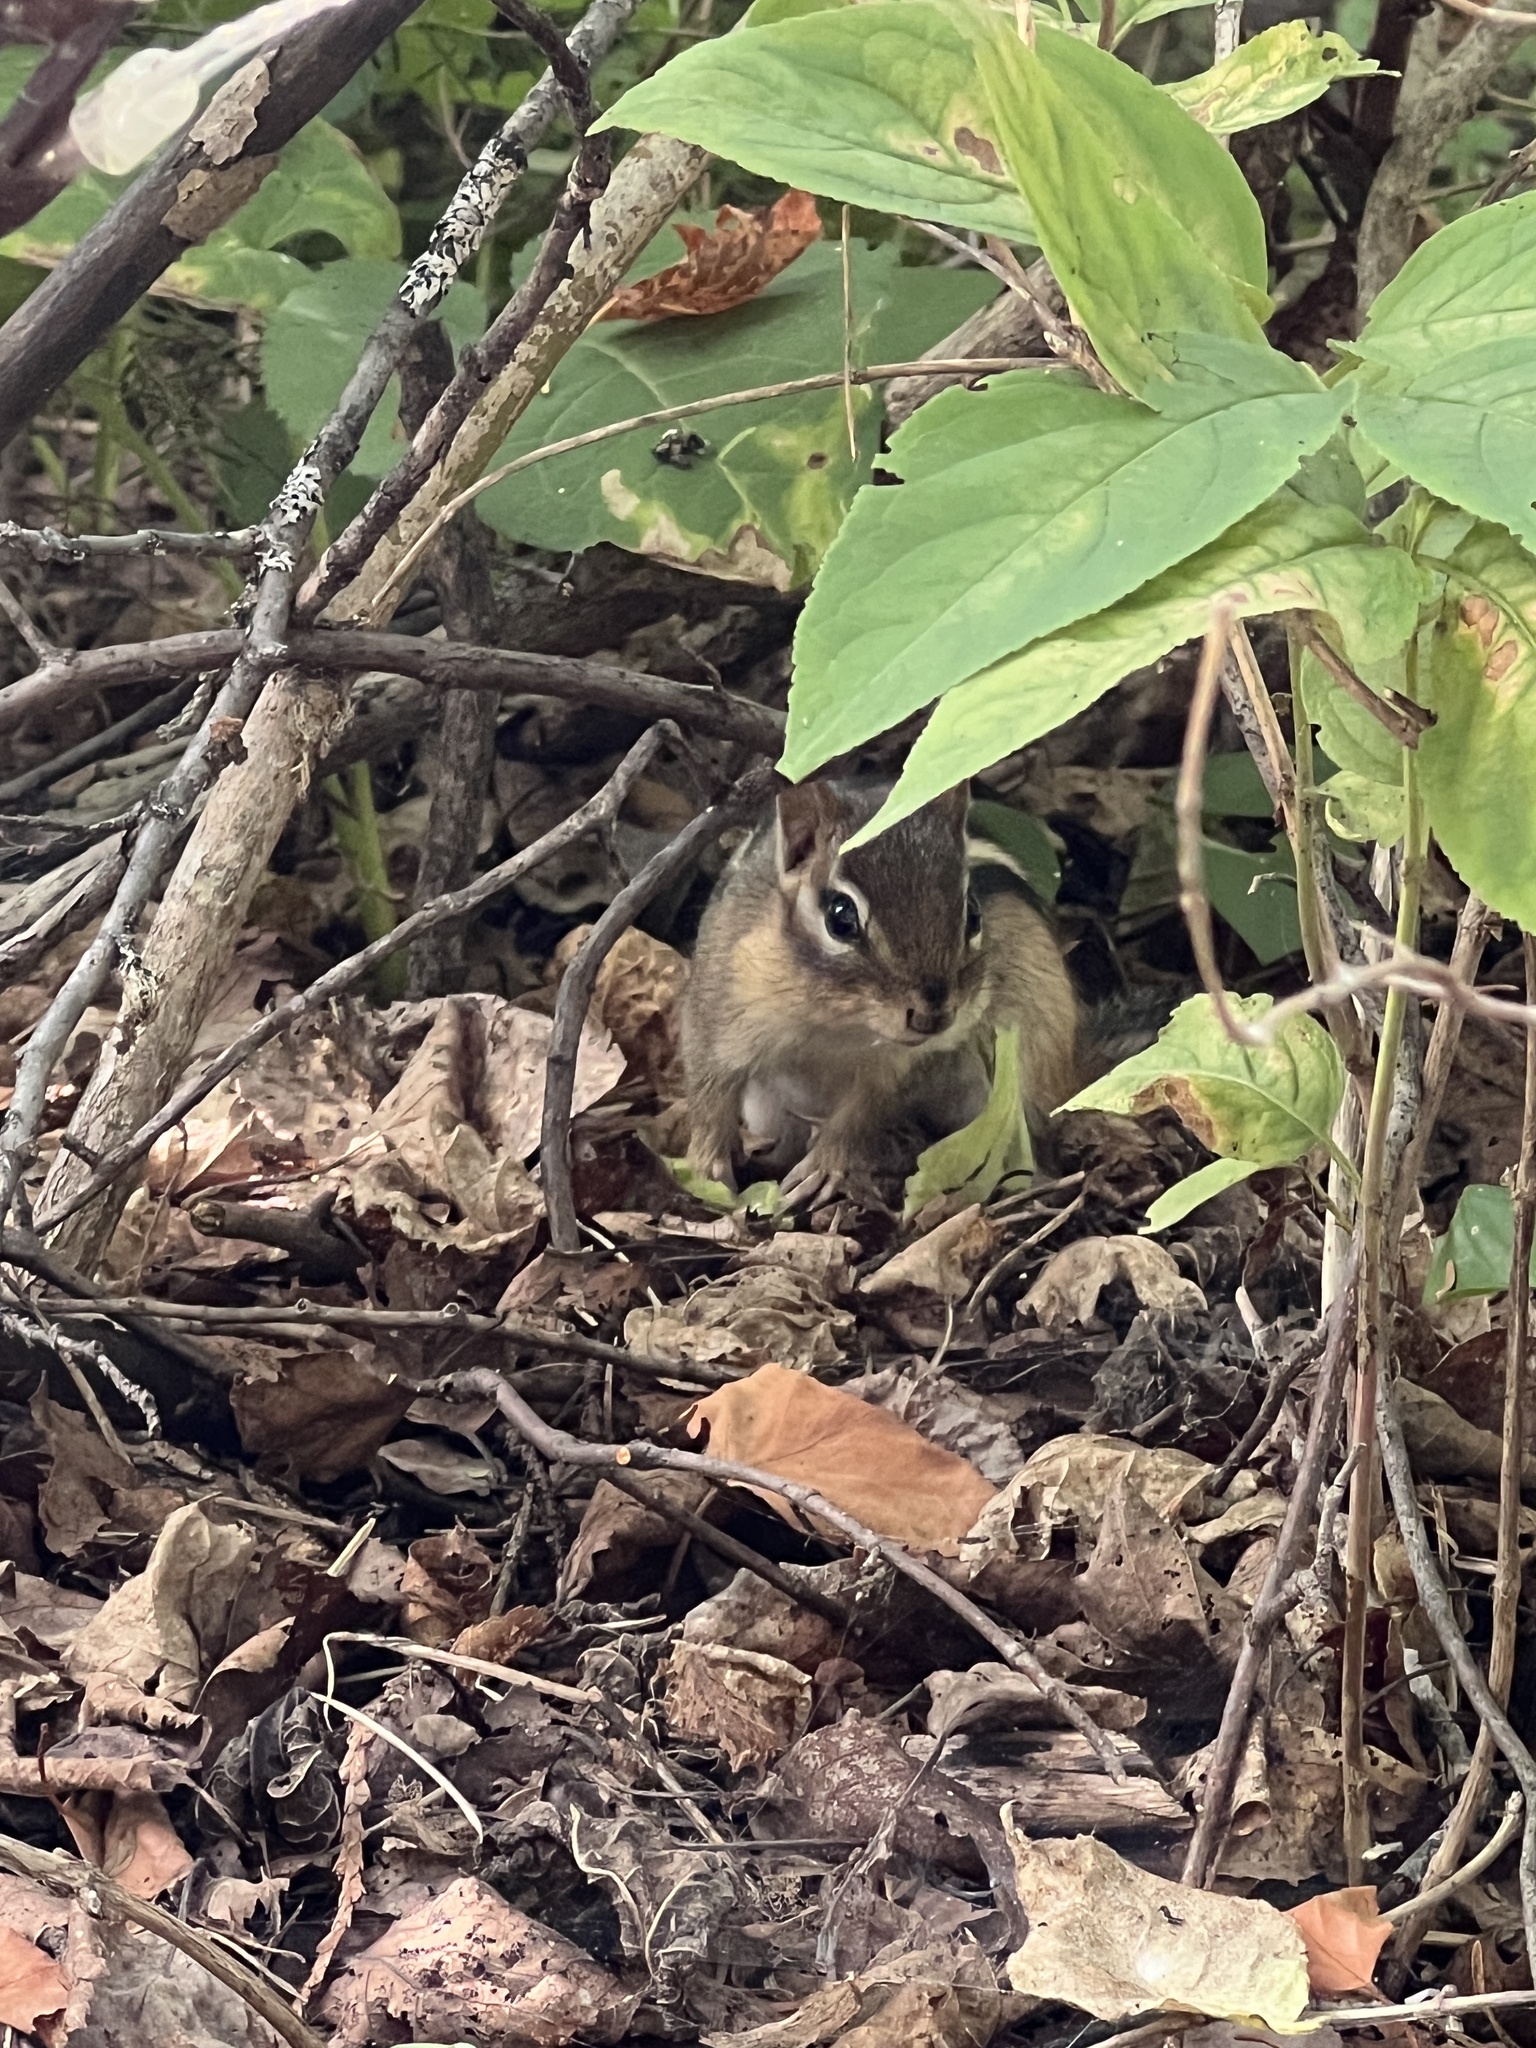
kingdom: Animalia
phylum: Chordata
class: Mammalia
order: Rodentia
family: Sciuridae
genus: Tamias
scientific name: Tamias striatus
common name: Eastern chipmunk
